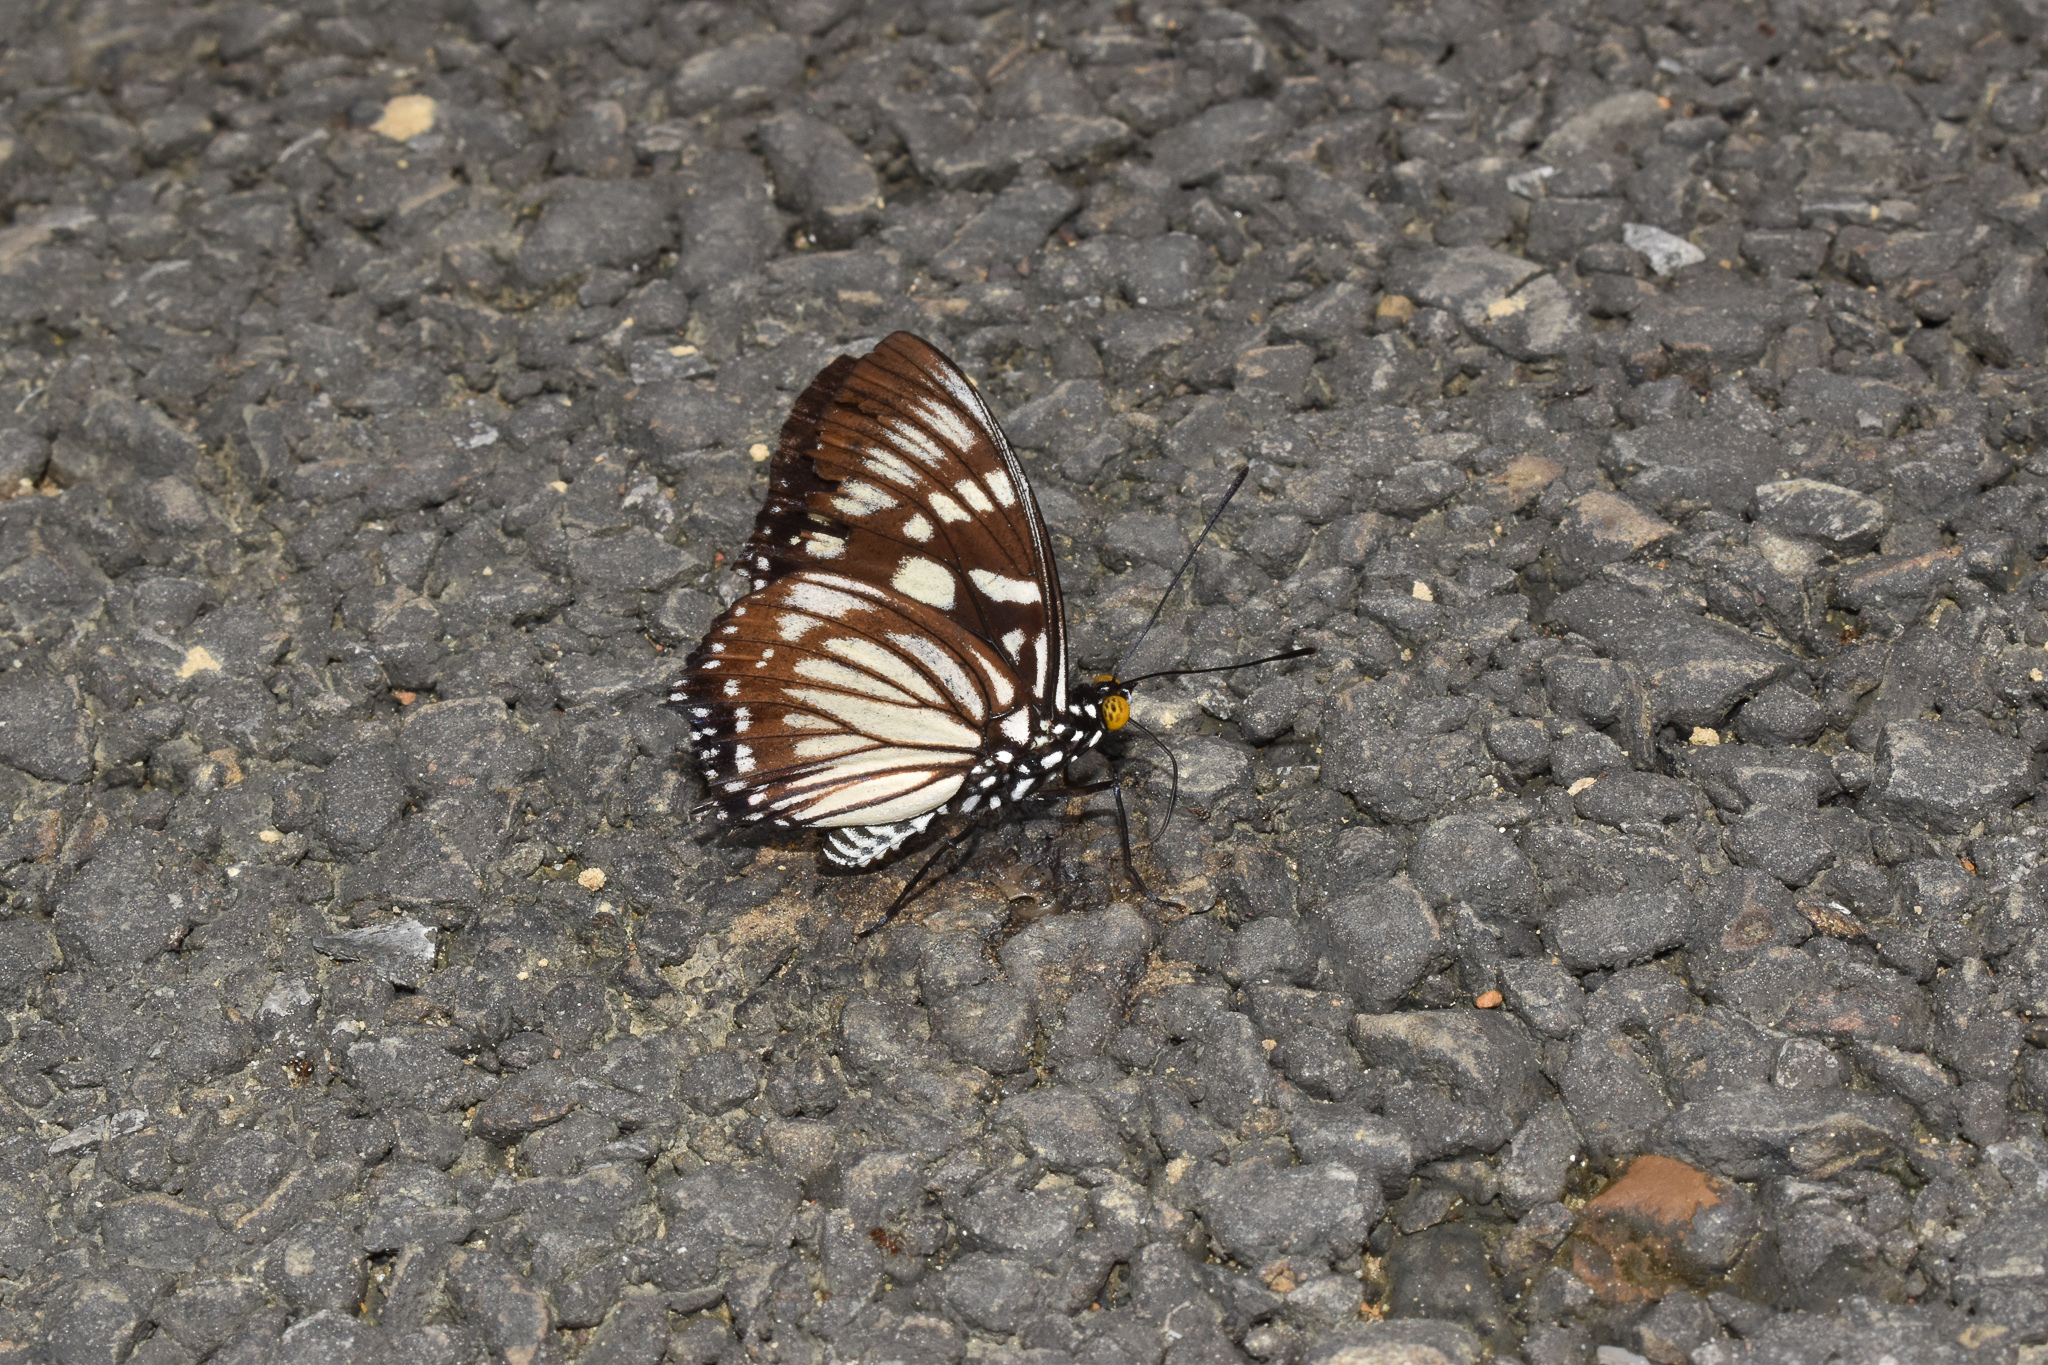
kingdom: Animalia
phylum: Arthropoda
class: Insecta
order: Lepidoptera
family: Nymphalidae
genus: Euripus
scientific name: Euripus nyctelius
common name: Courtesan
